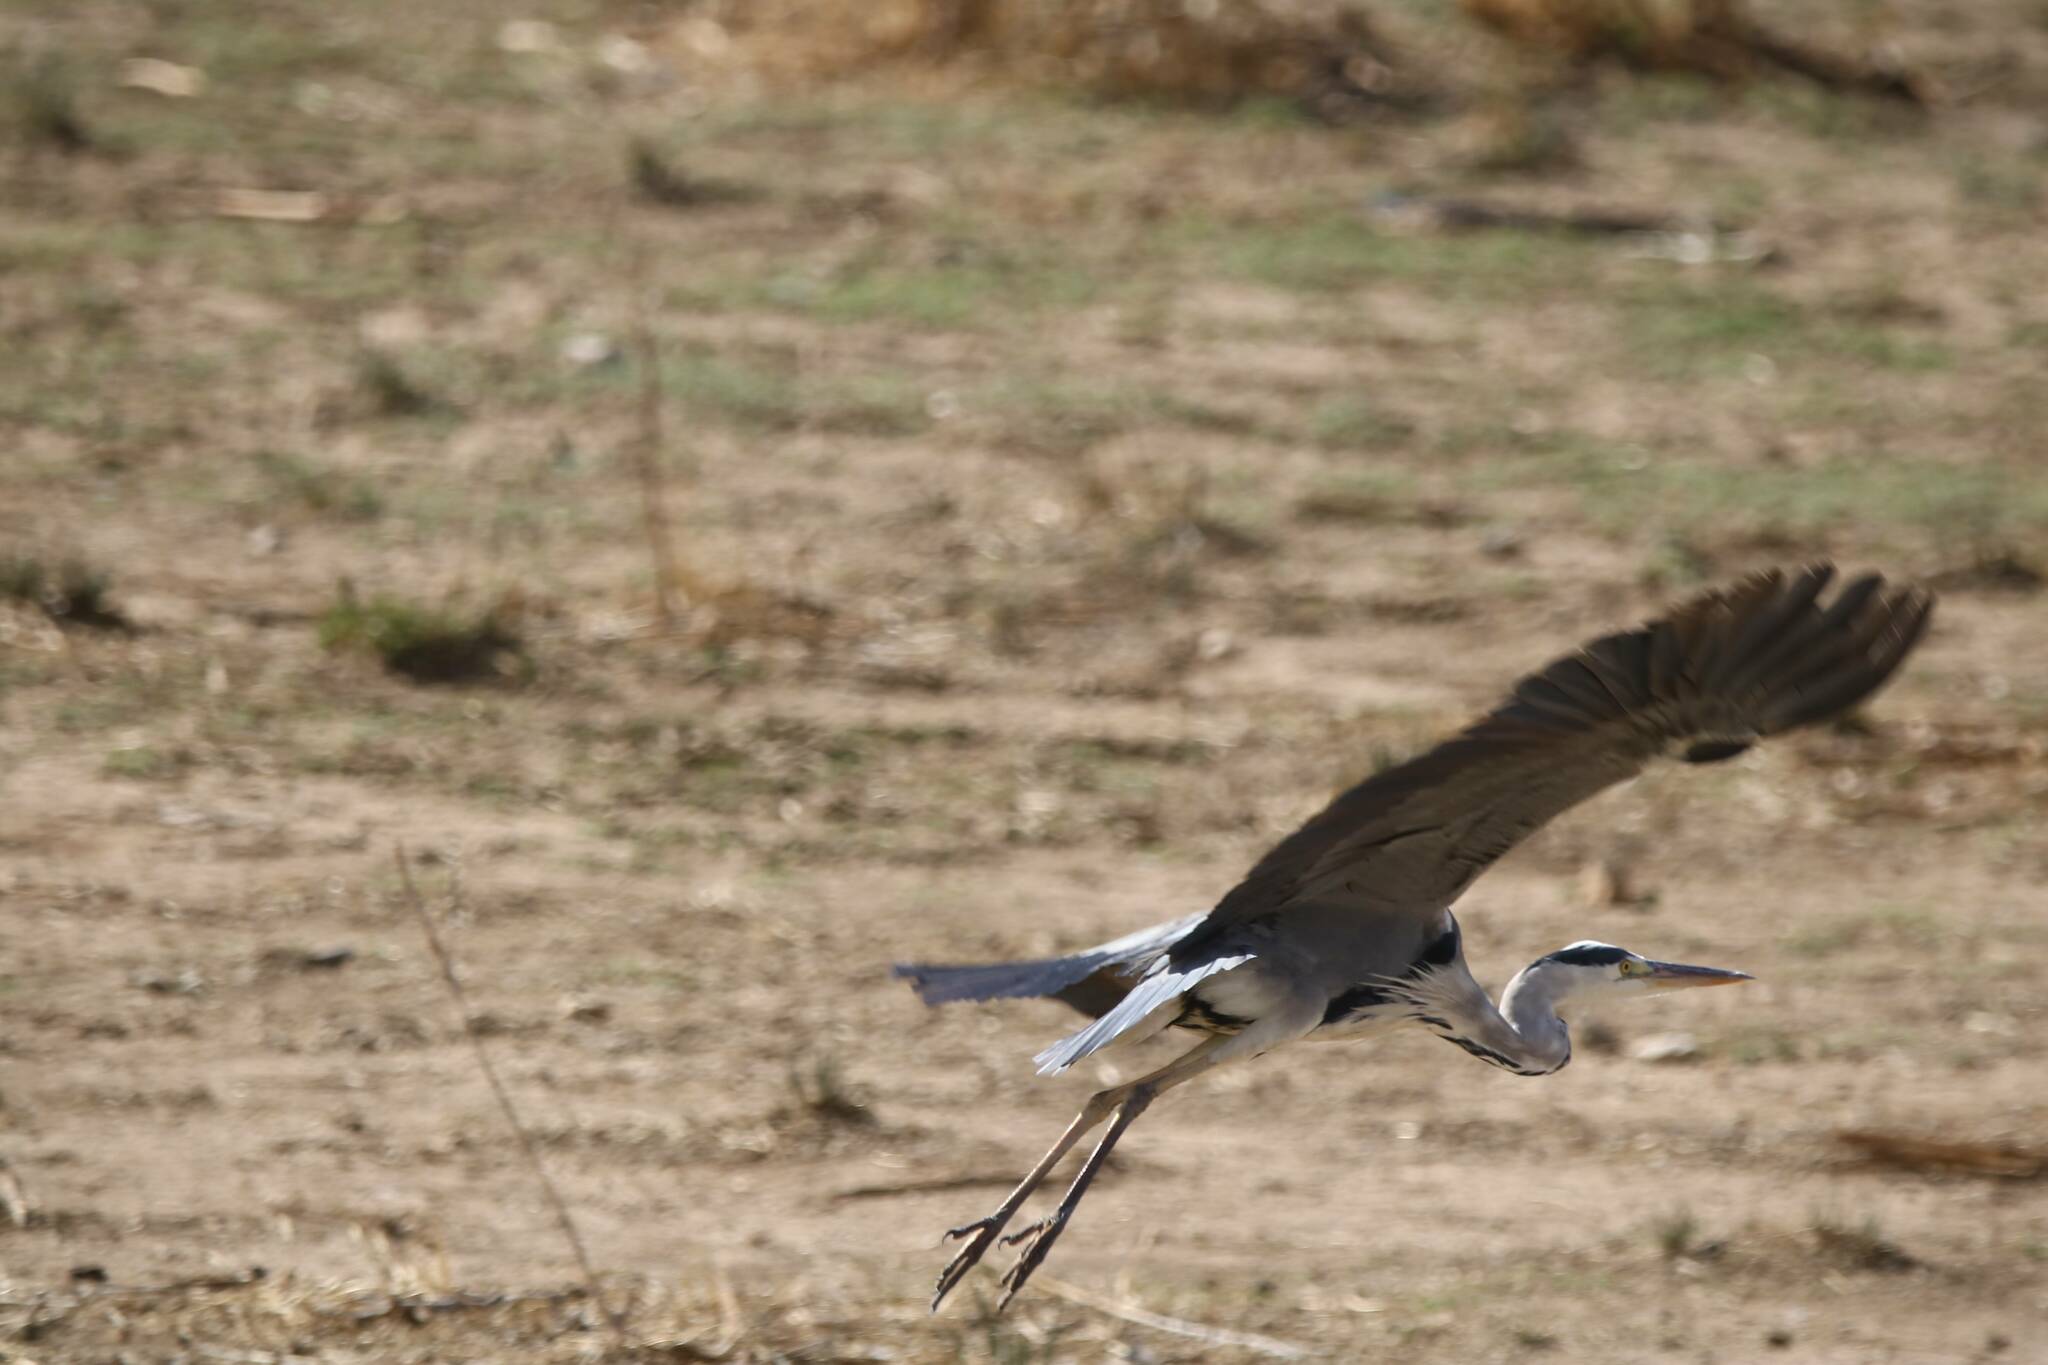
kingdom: Animalia
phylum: Chordata
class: Aves
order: Pelecaniformes
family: Ardeidae
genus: Ardea
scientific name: Ardea cinerea
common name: Grey heron
